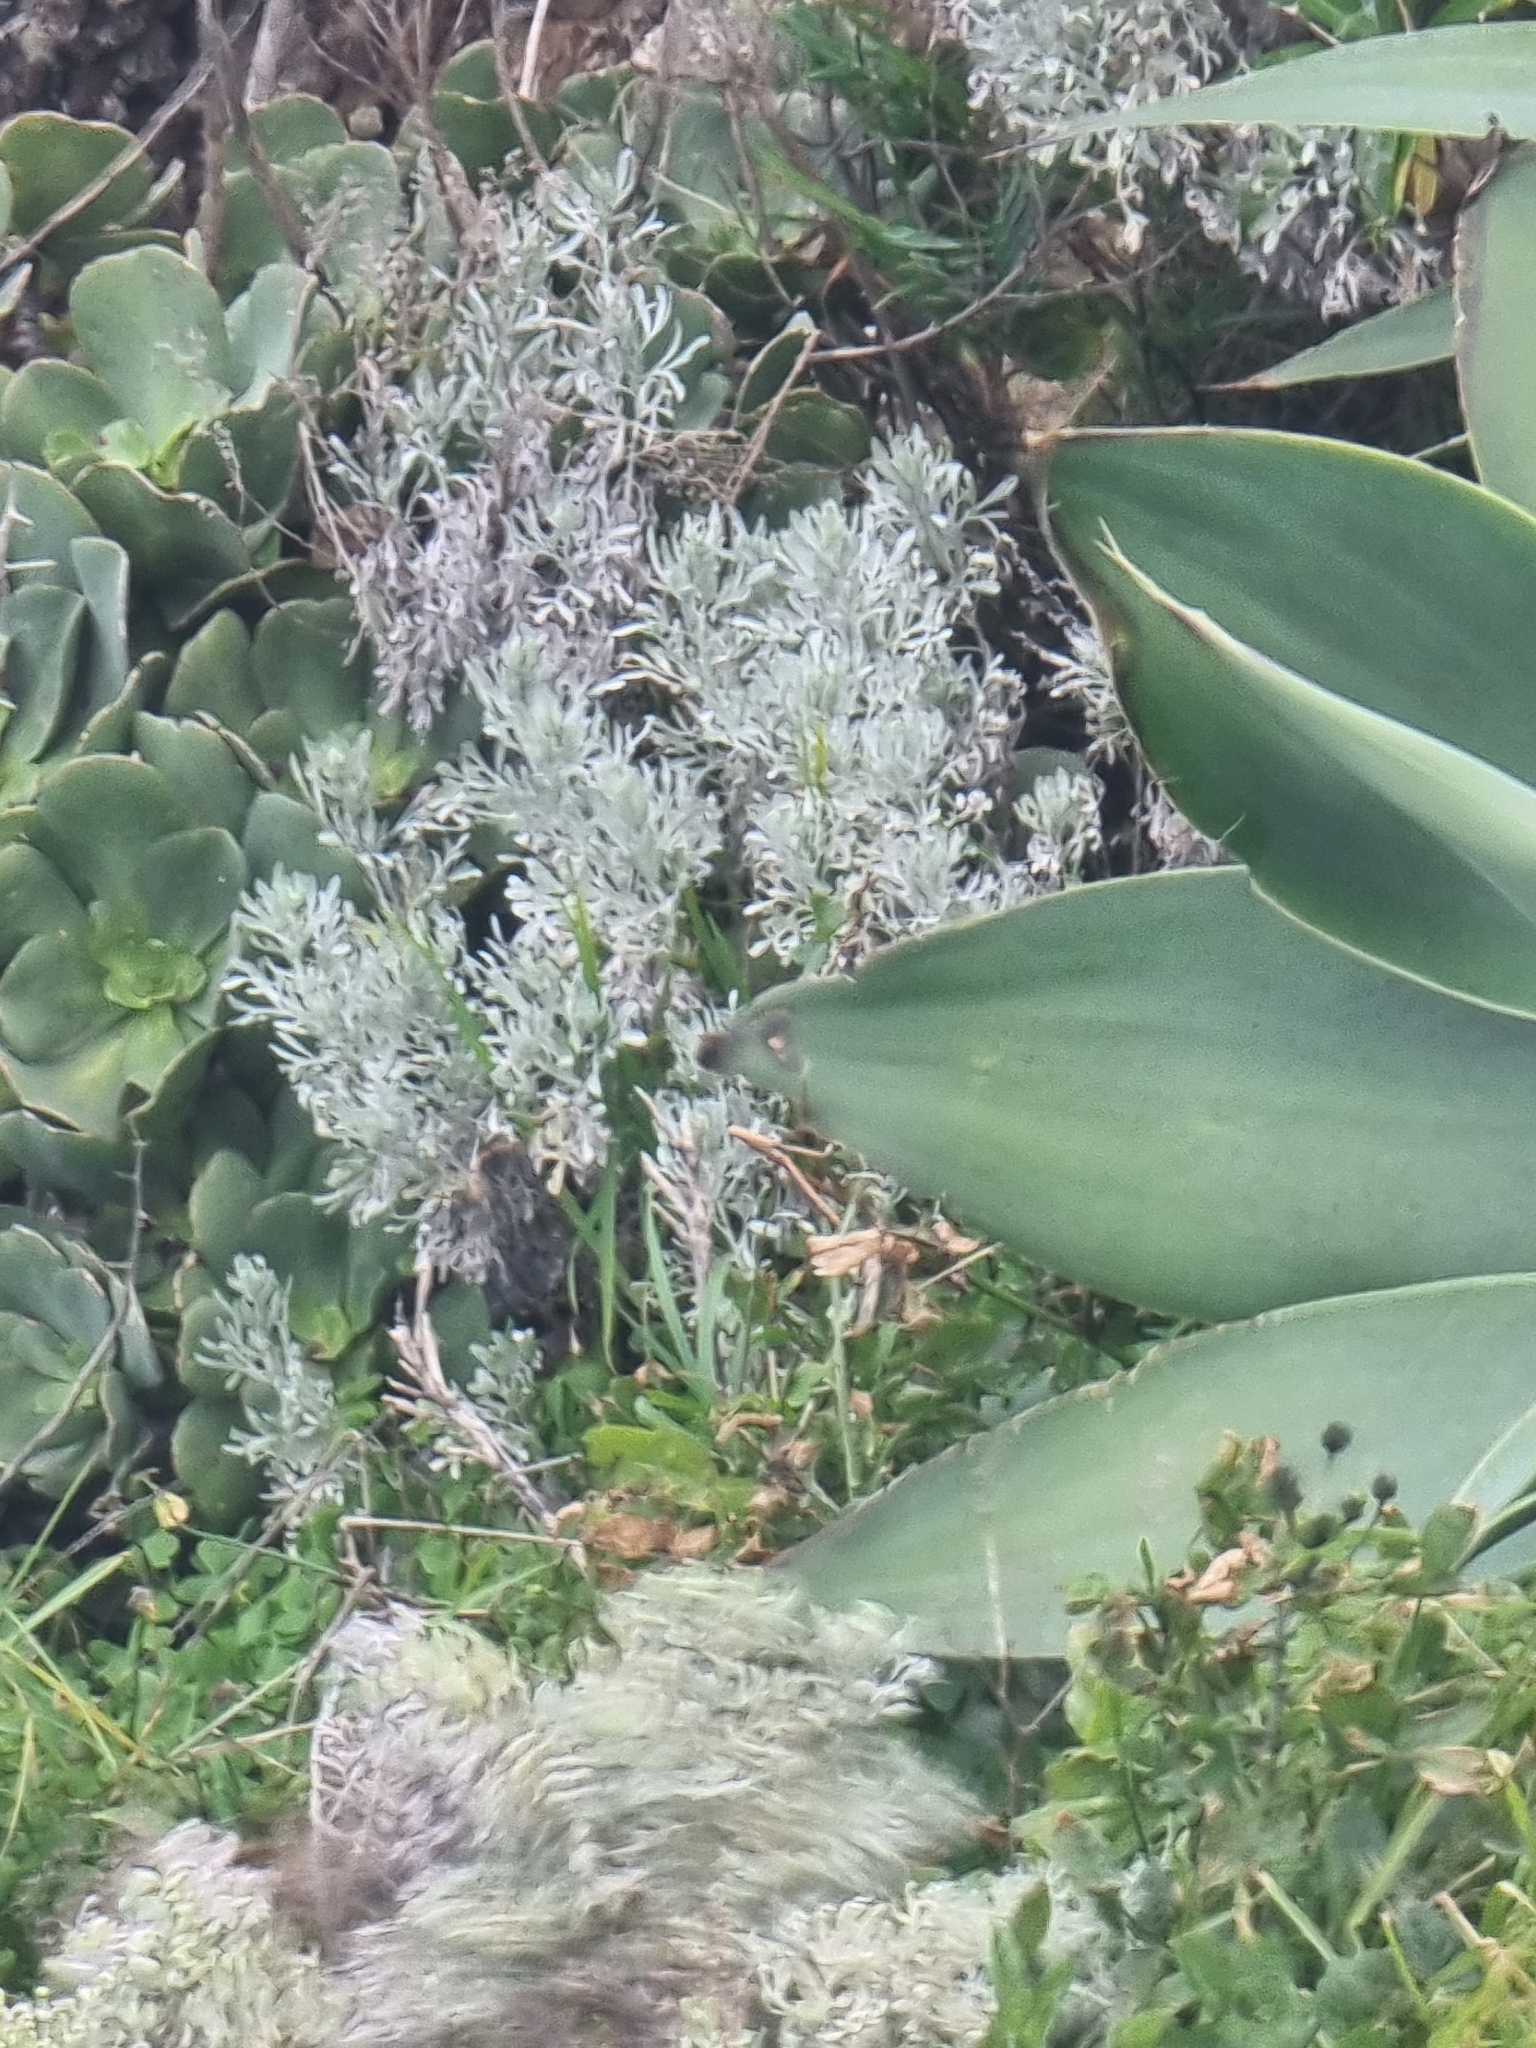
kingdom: Plantae
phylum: Tracheophyta
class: Magnoliopsida
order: Asterales
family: Asteraceae
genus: Artemisia
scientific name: Artemisia argentea
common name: Madeira wormwood
